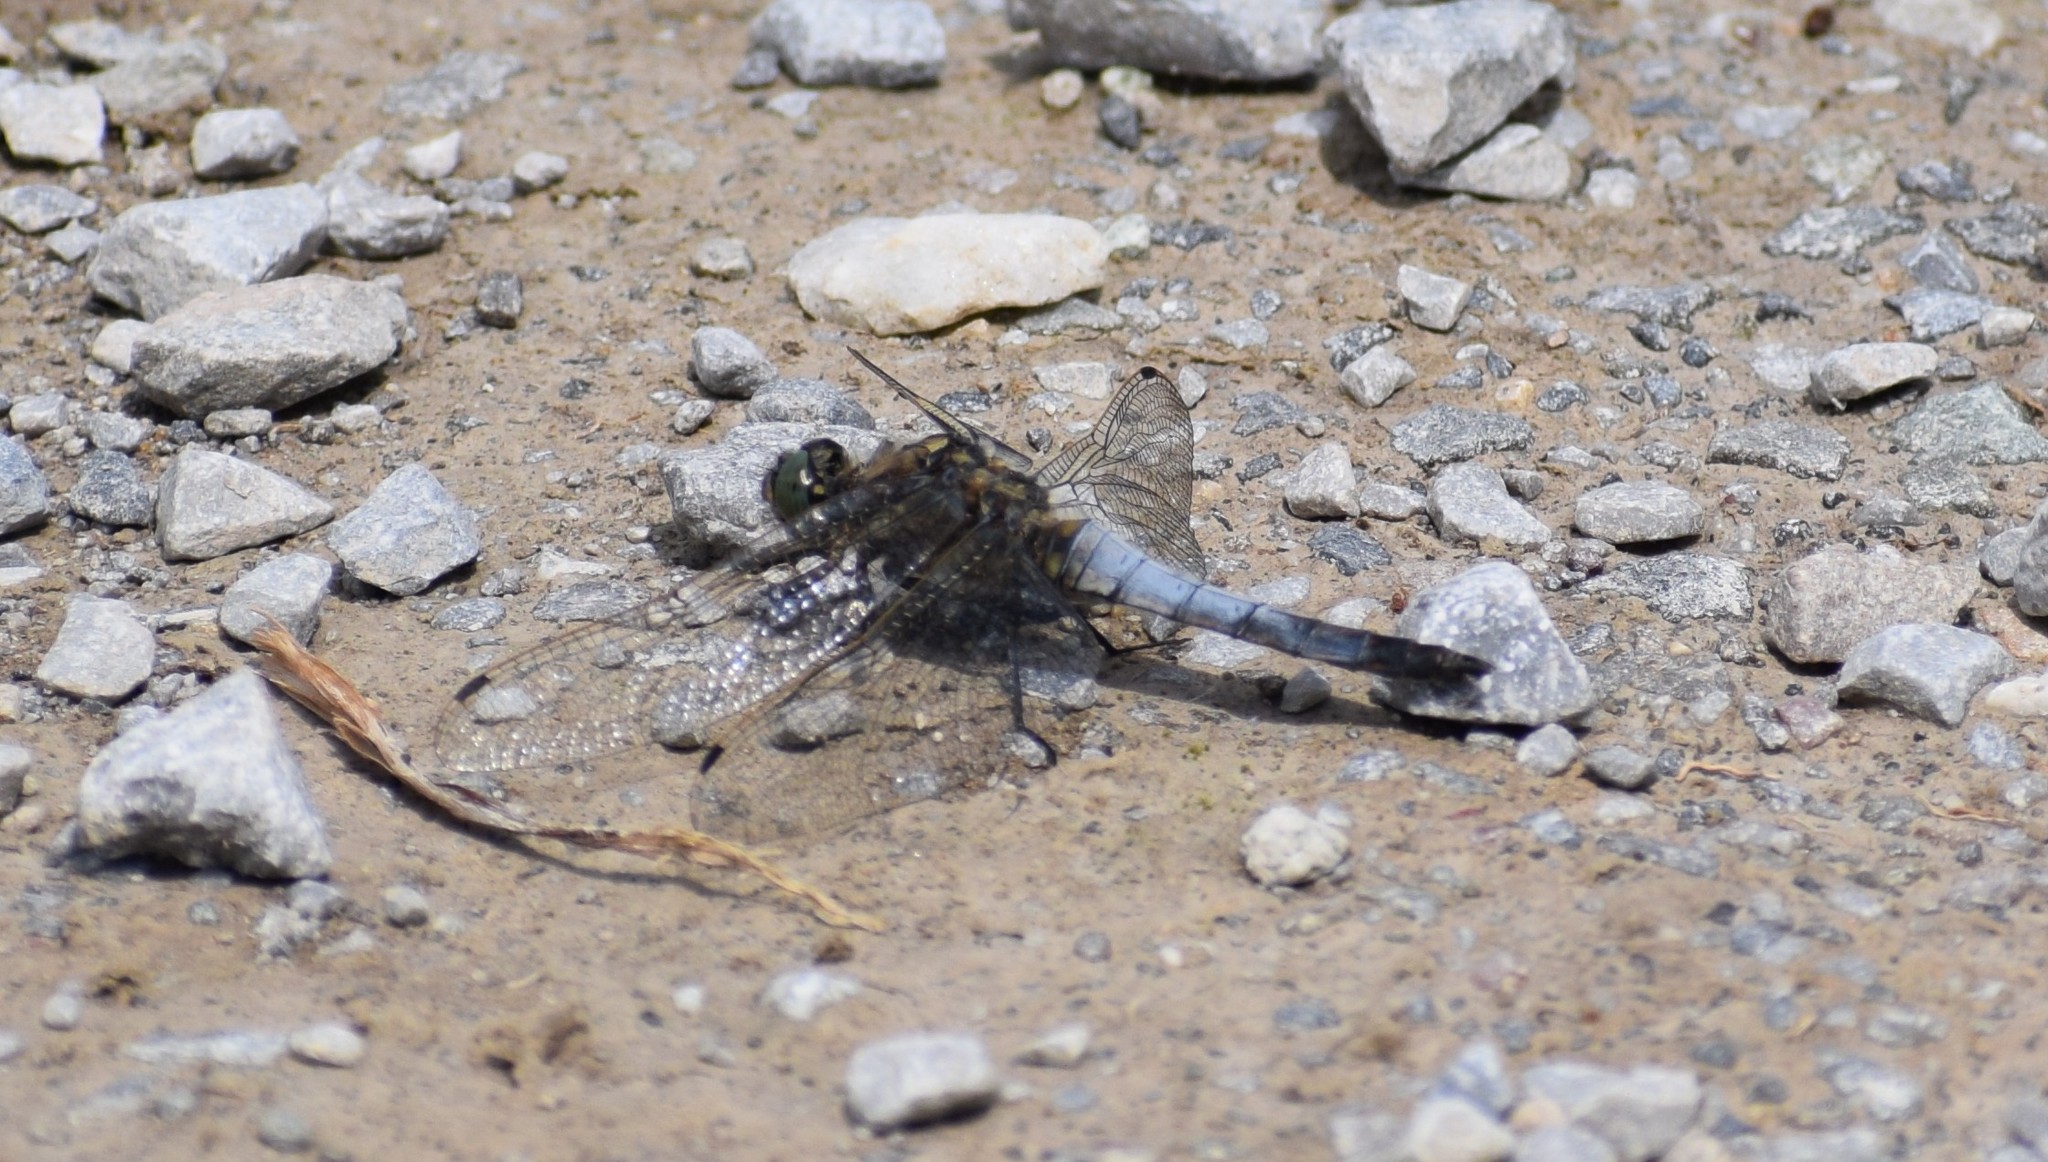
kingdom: Animalia
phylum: Arthropoda
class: Insecta
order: Odonata
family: Libellulidae
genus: Orthetrum
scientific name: Orthetrum cancellatum
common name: Black-tailed skimmer
